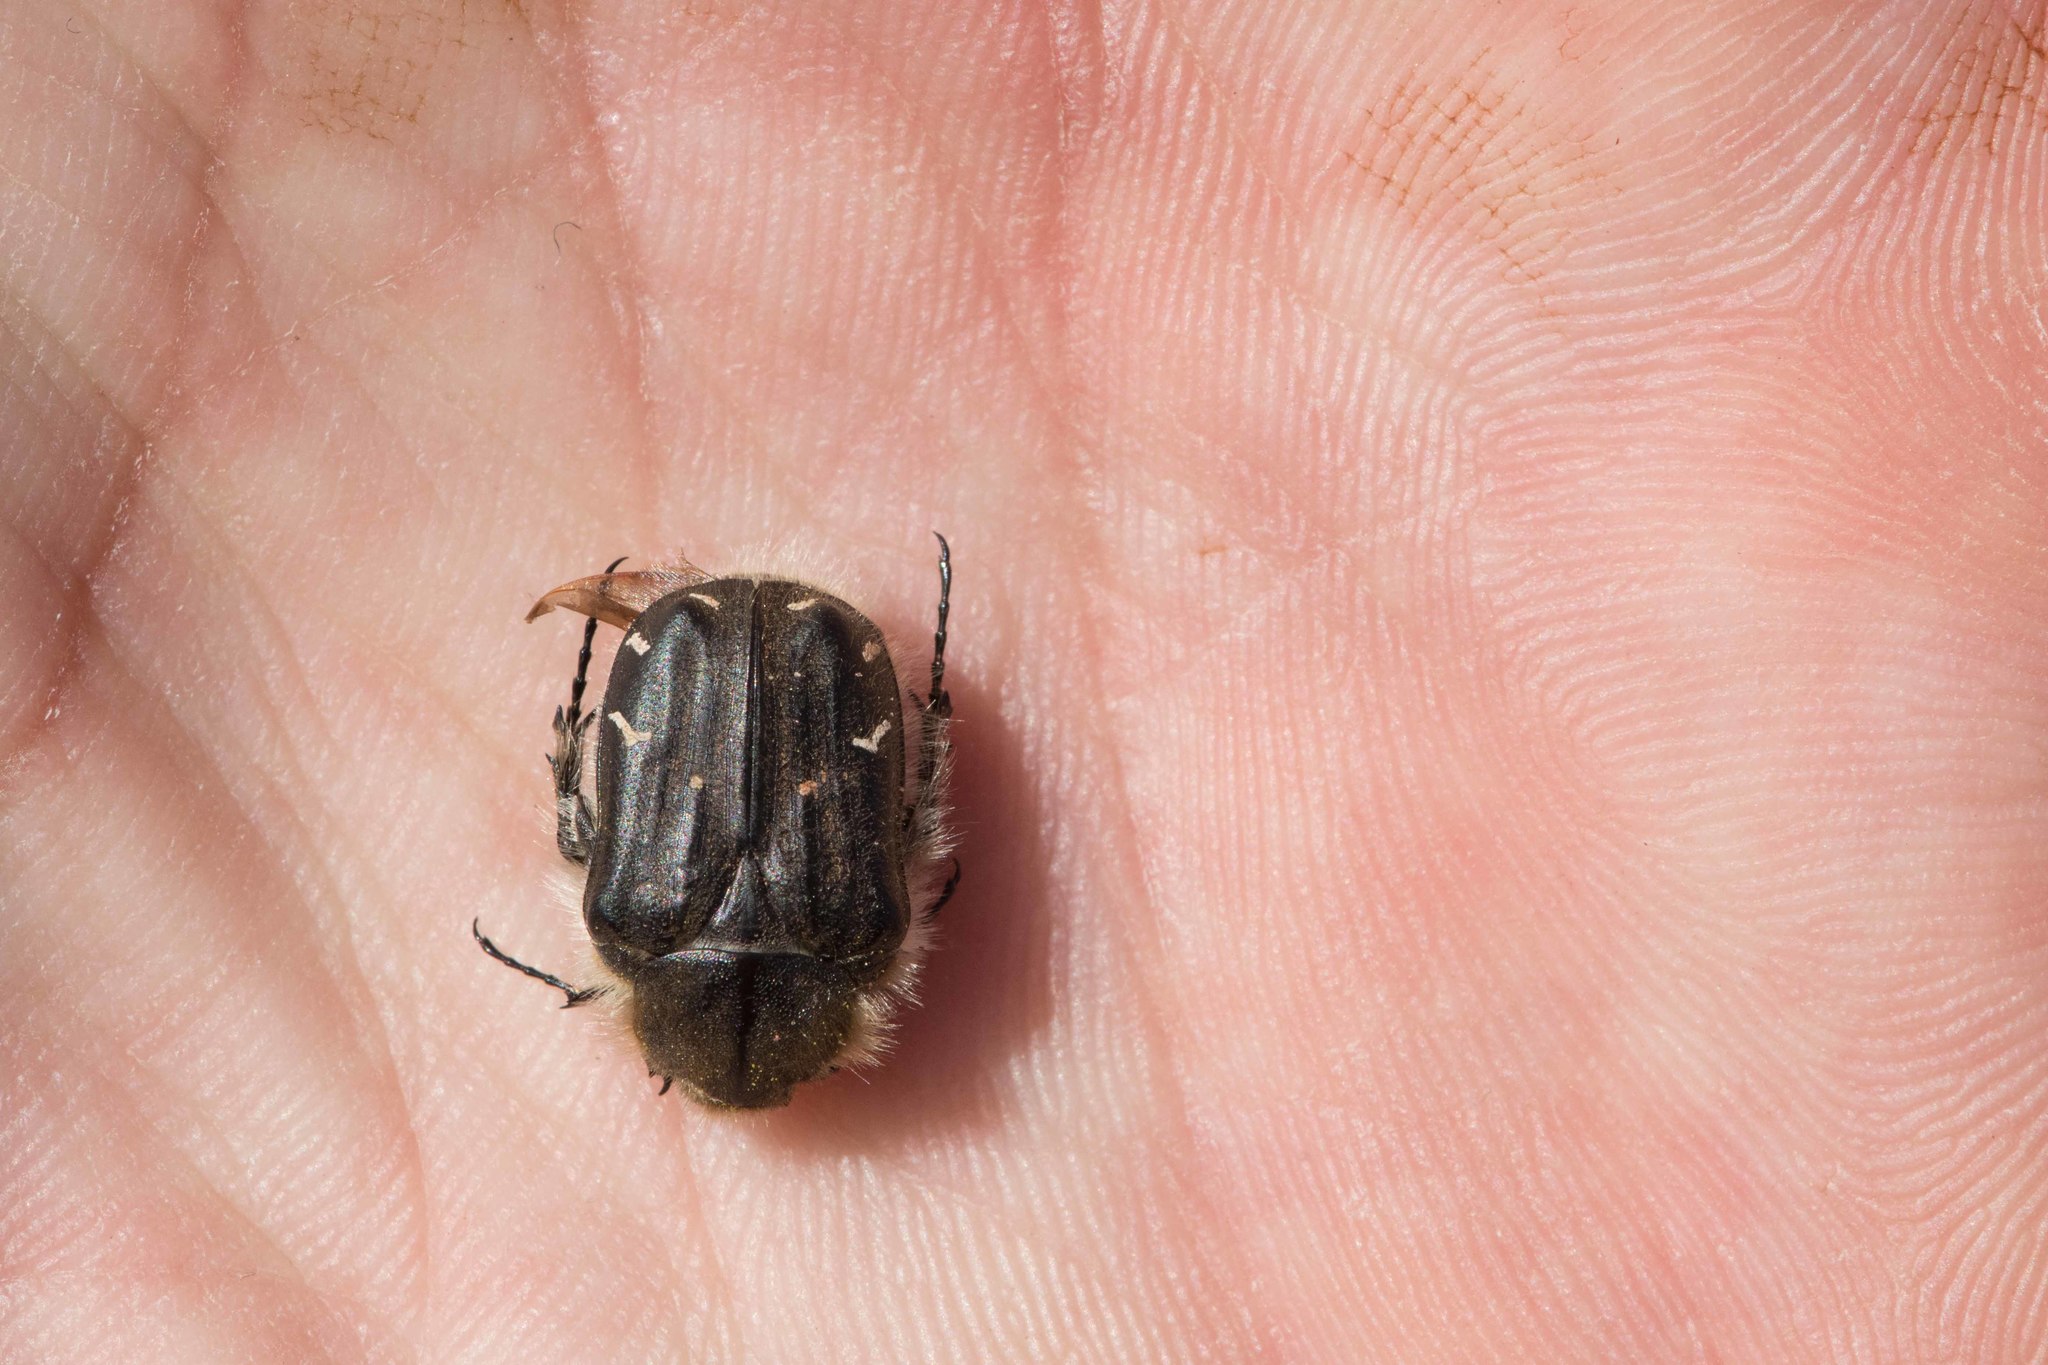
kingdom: Animalia
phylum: Arthropoda
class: Insecta
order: Coleoptera
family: Scarabaeidae
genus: Tropinota
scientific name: Tropinota hirta
